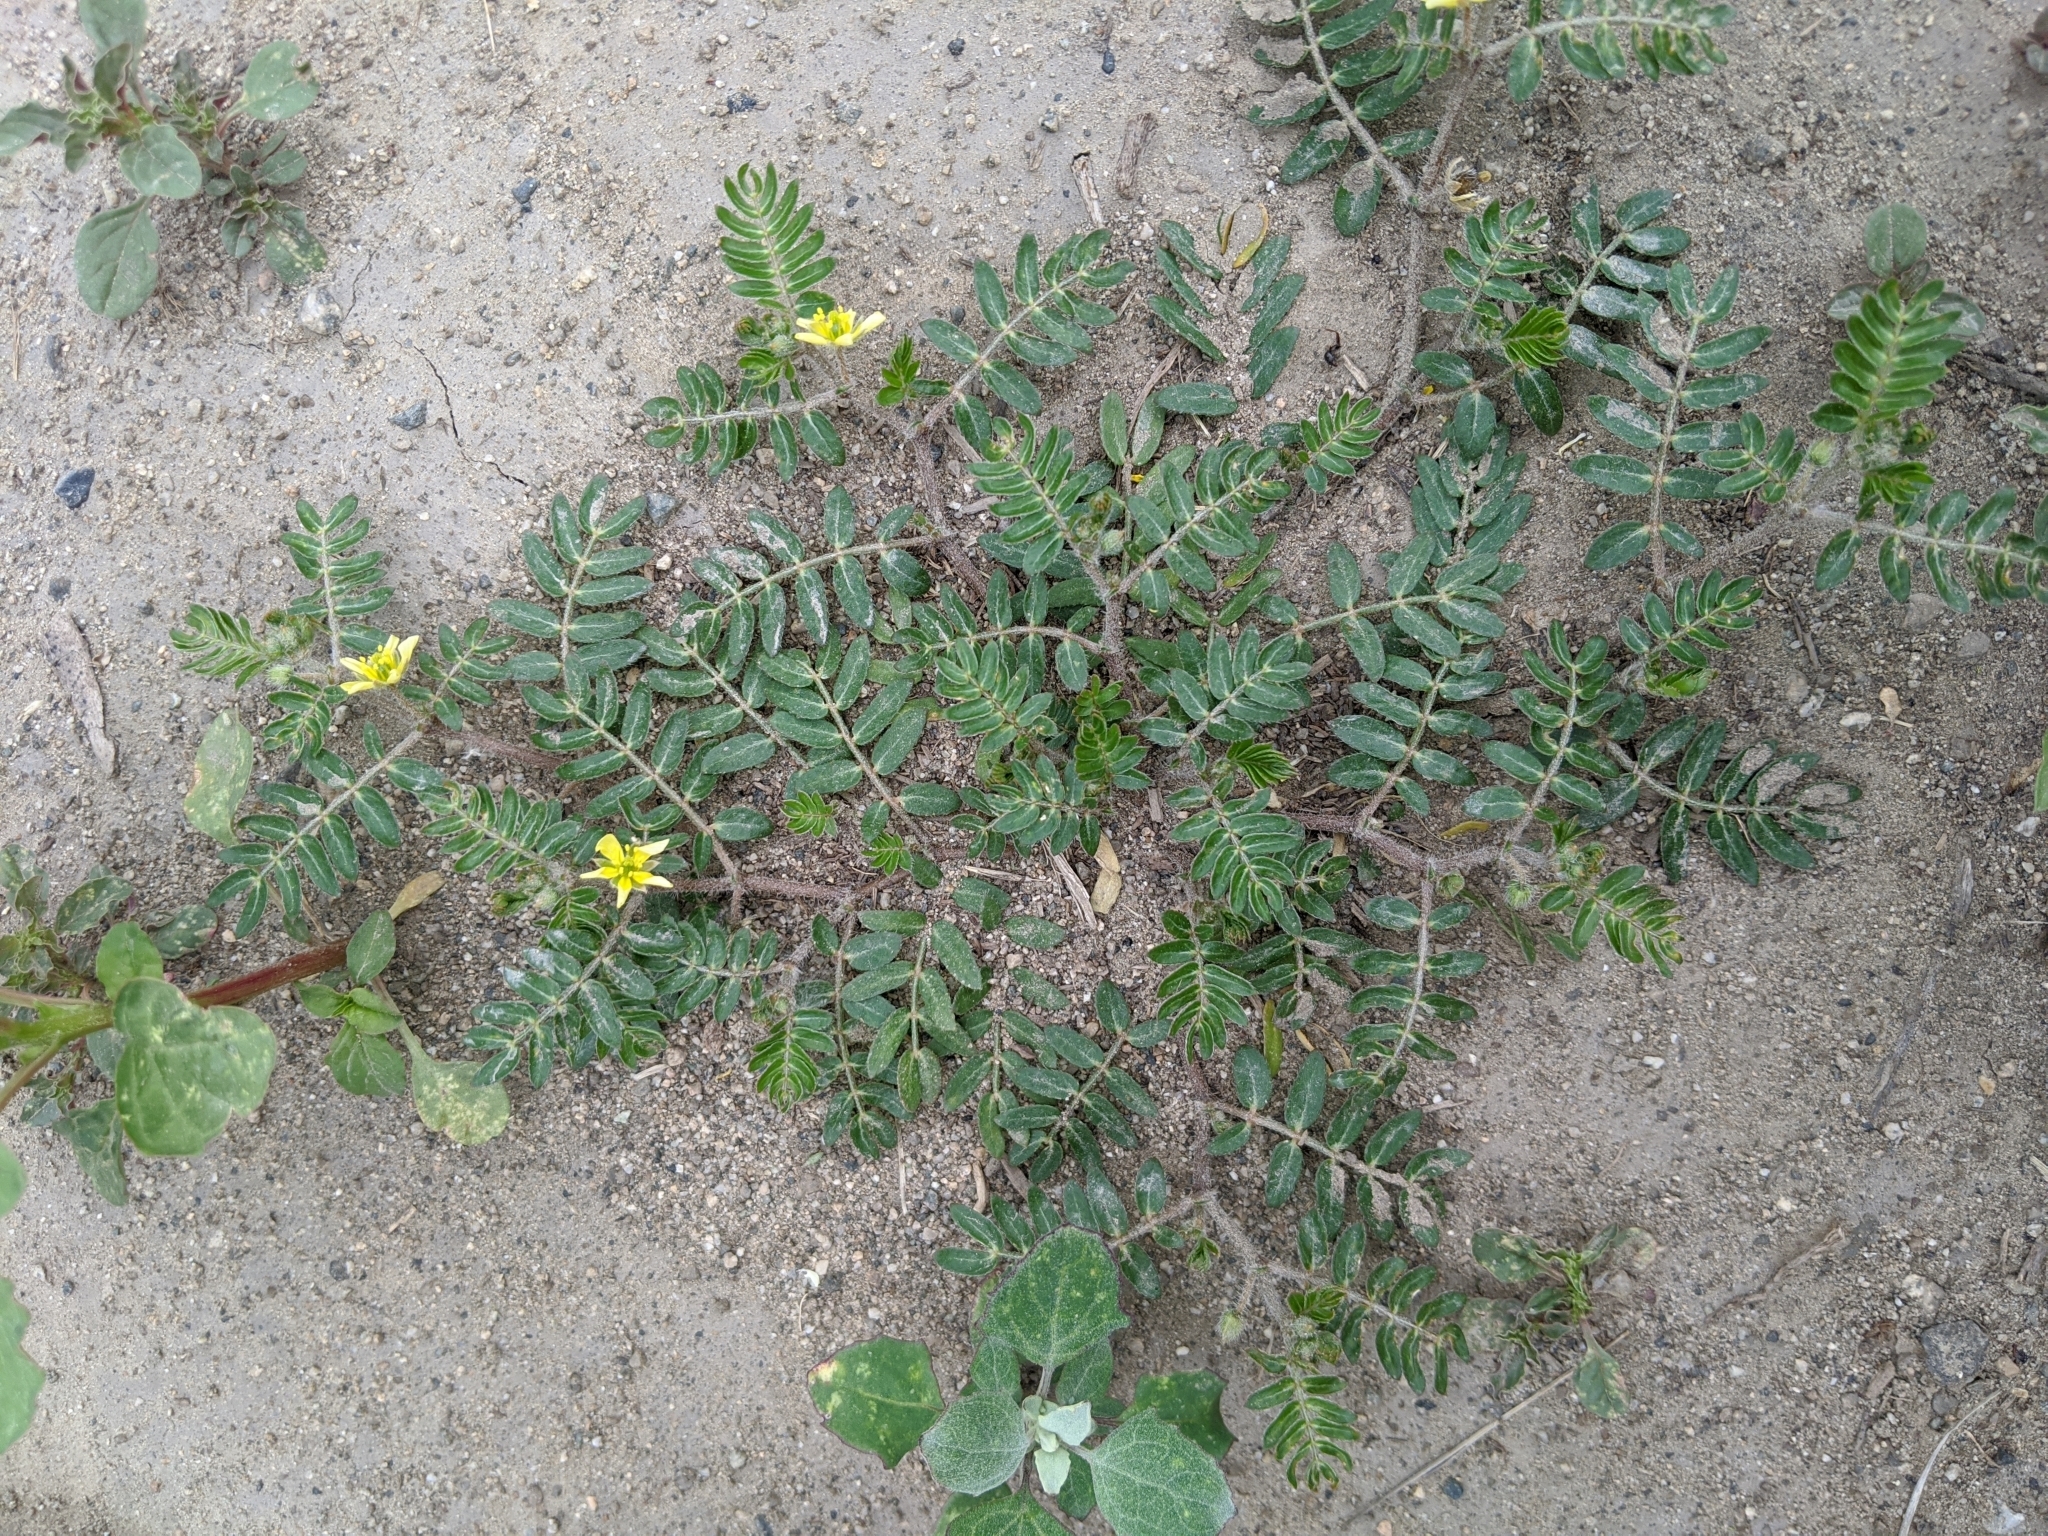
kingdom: Plantae
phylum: Tracheophyta
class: Magnoliopsida
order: Zygophyllales
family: Zygophyllaceae
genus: Tribulus
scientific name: Tribulus terrestris
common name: Puncturevine
